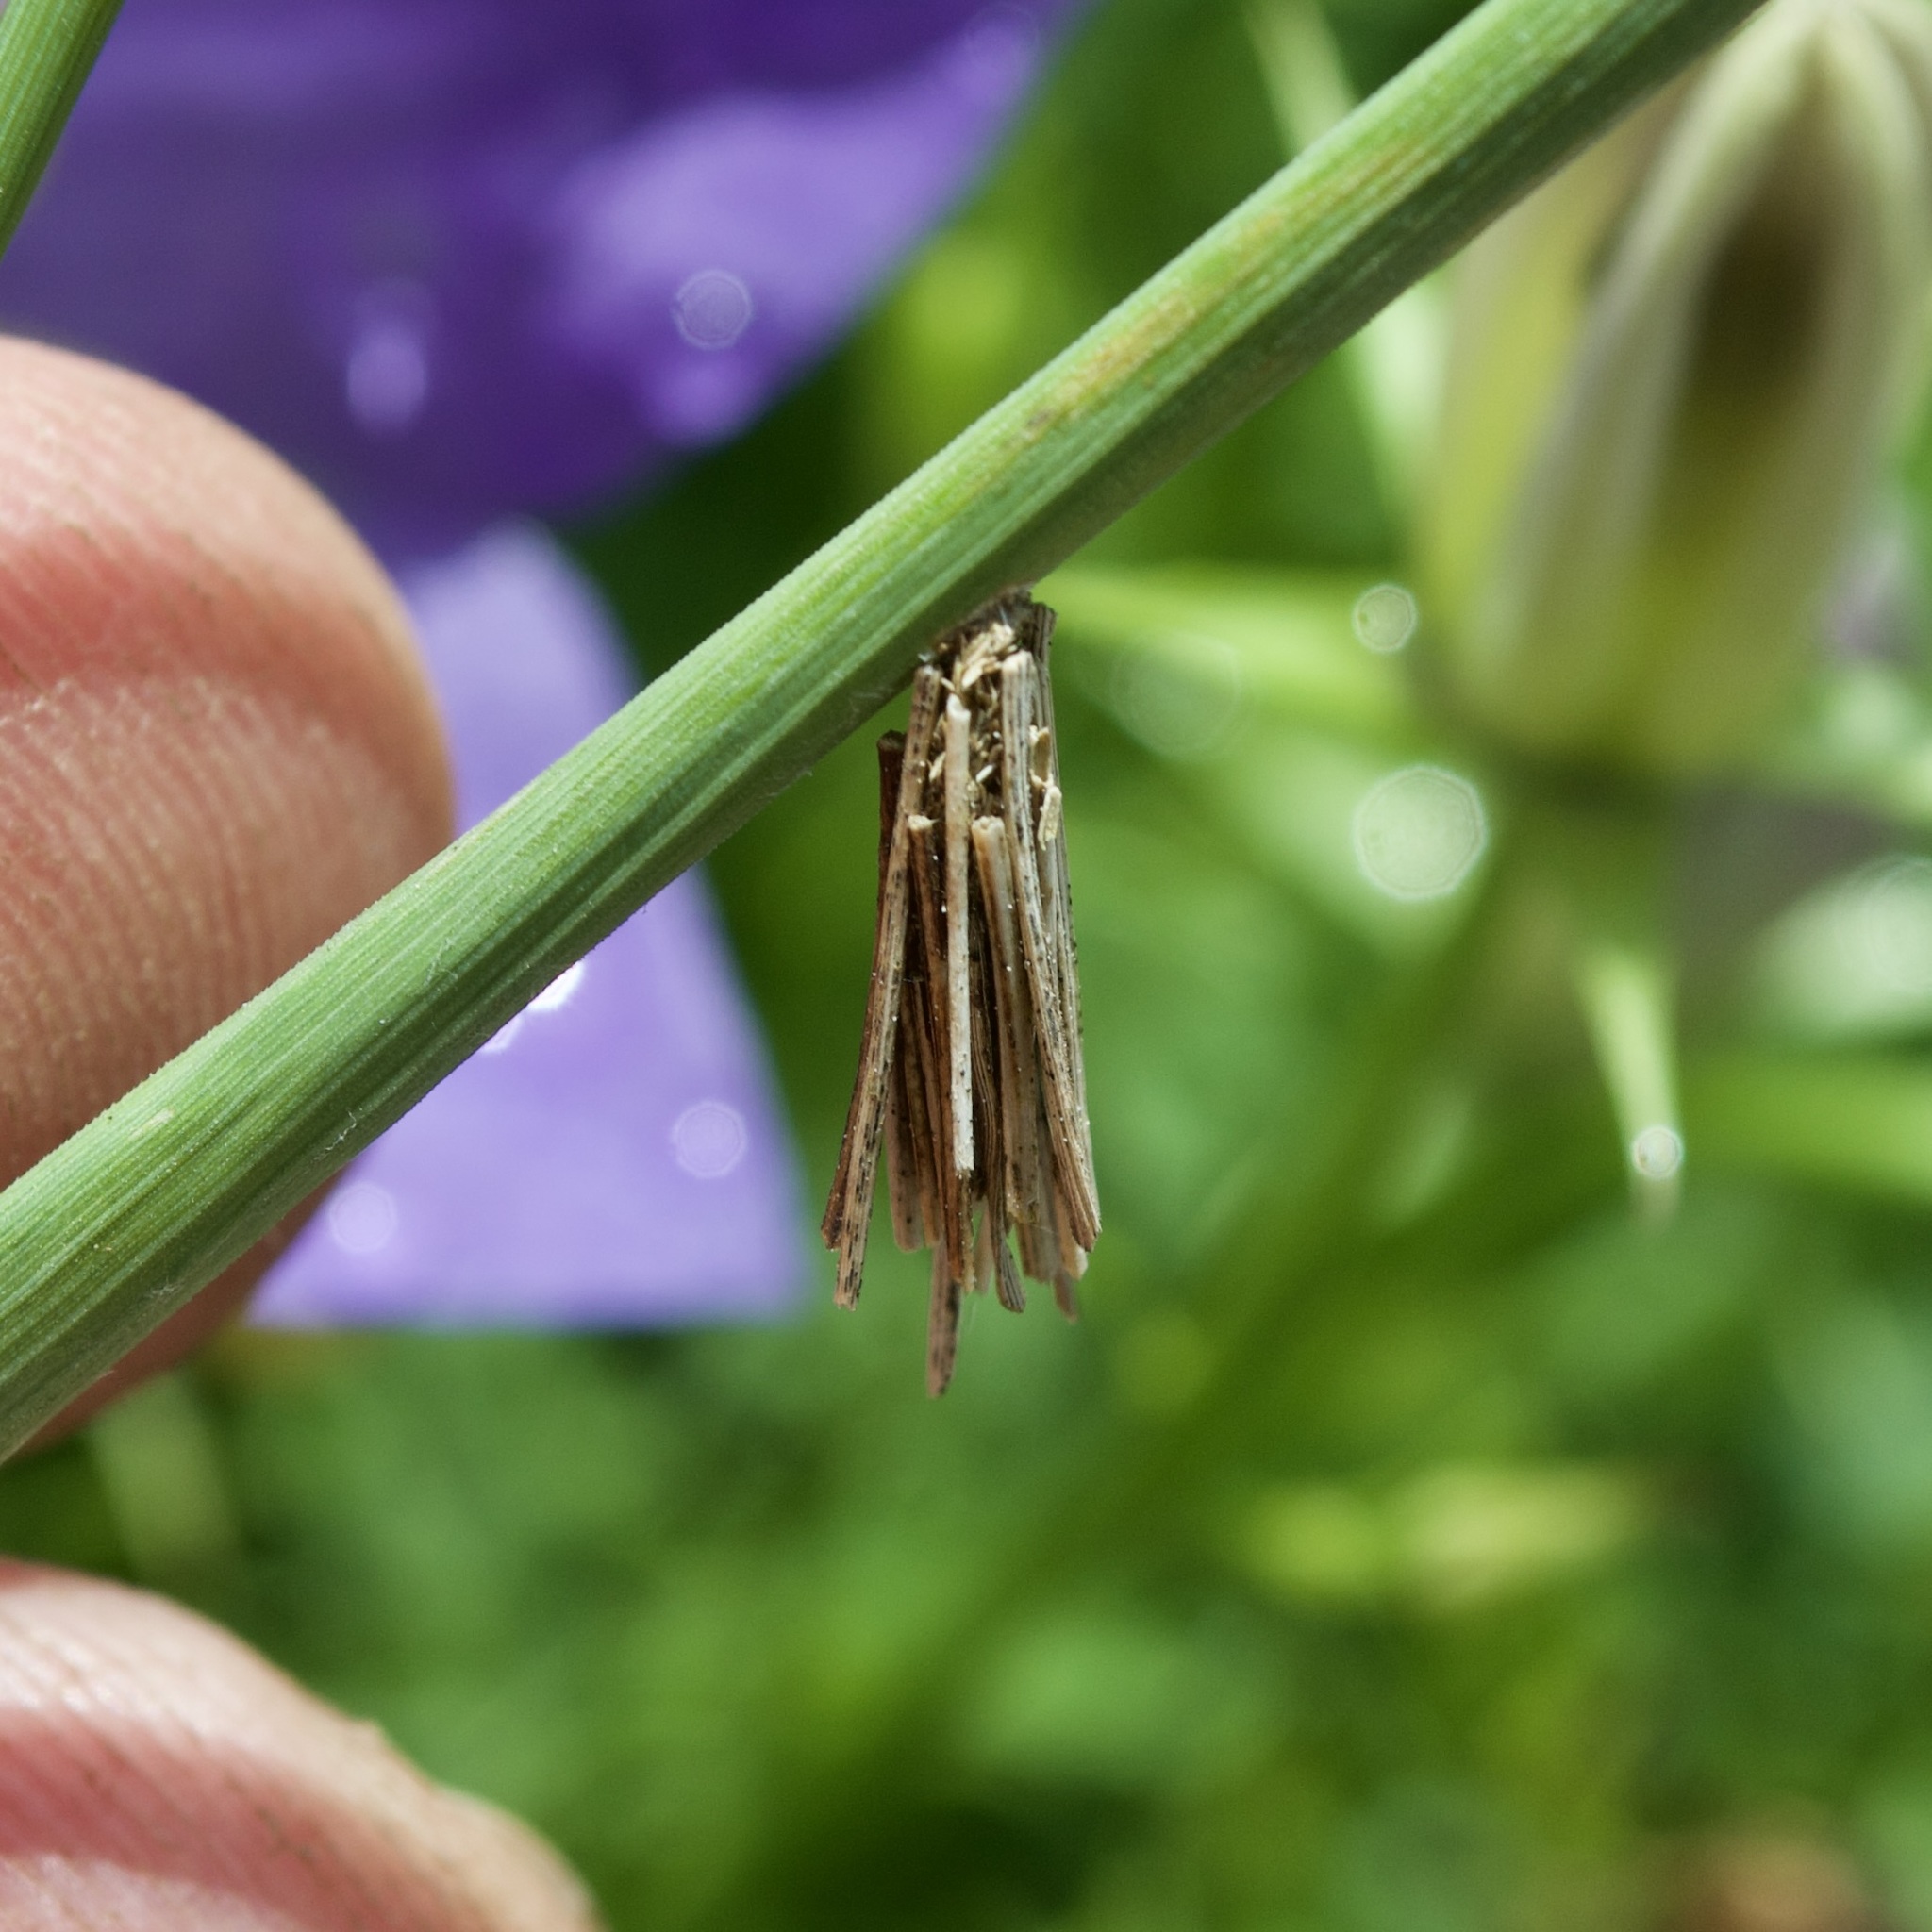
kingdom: Animalia
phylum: Arthropoda
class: Insecta
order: Lepidoptera
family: Psychidae
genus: Psyche
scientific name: Psyche casta
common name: Common sweep
